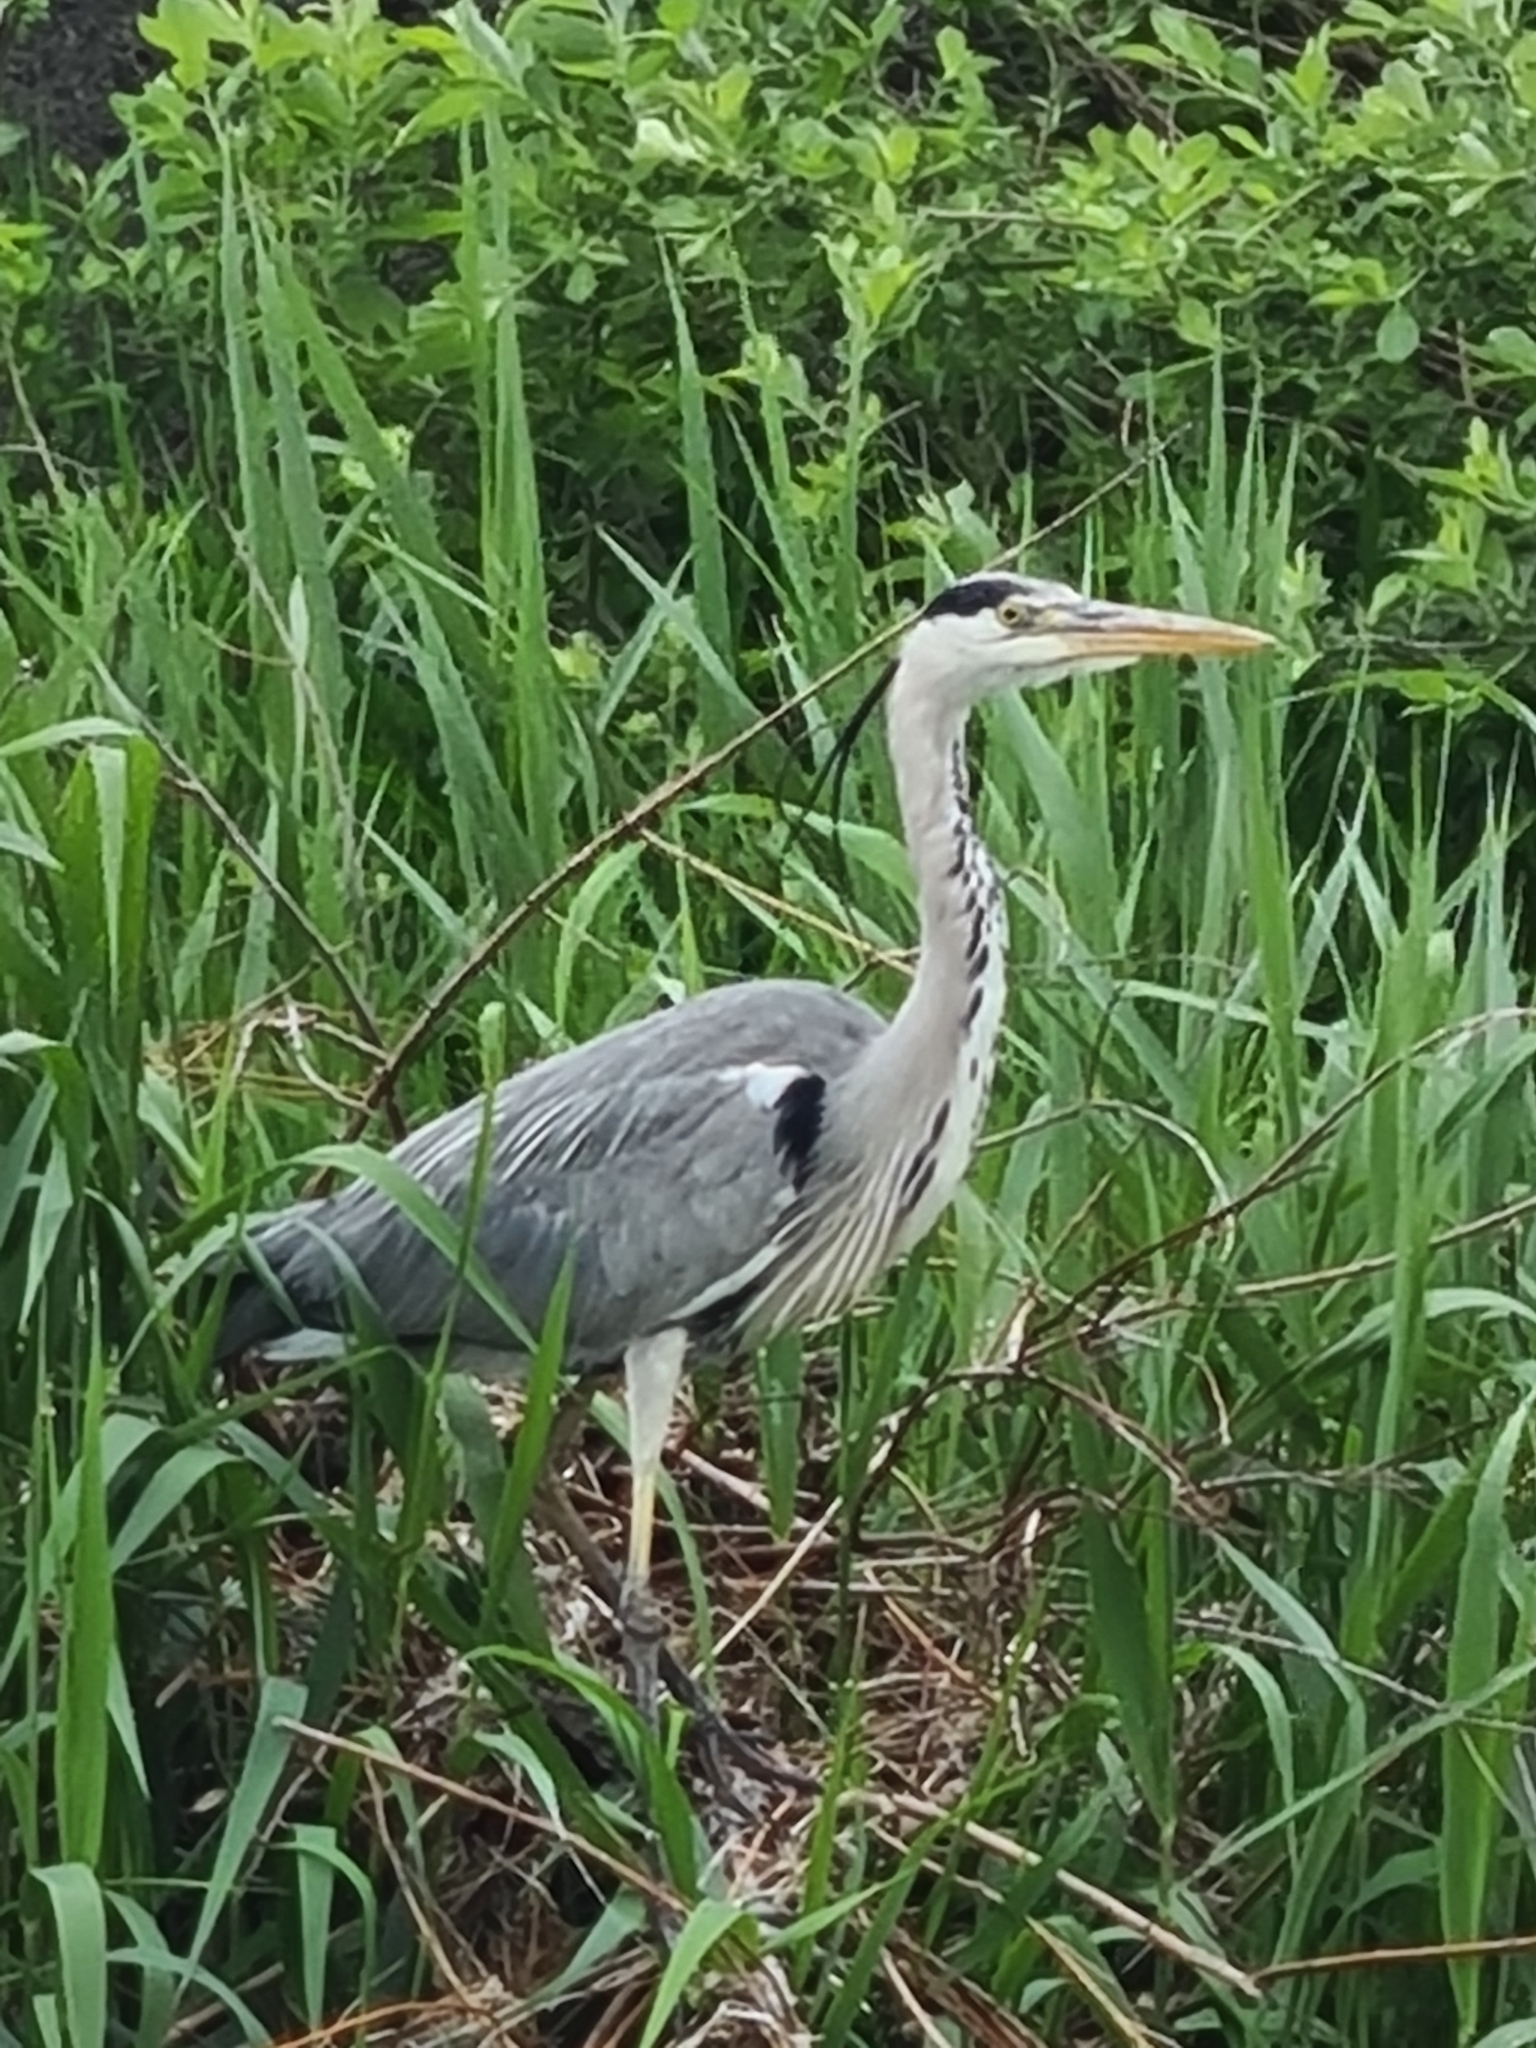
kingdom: Animalia
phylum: Chordata
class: Aves
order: Pelecaniformes
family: Ardeidae
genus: Ardea
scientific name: Ardea cinerea
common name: Grey heron
